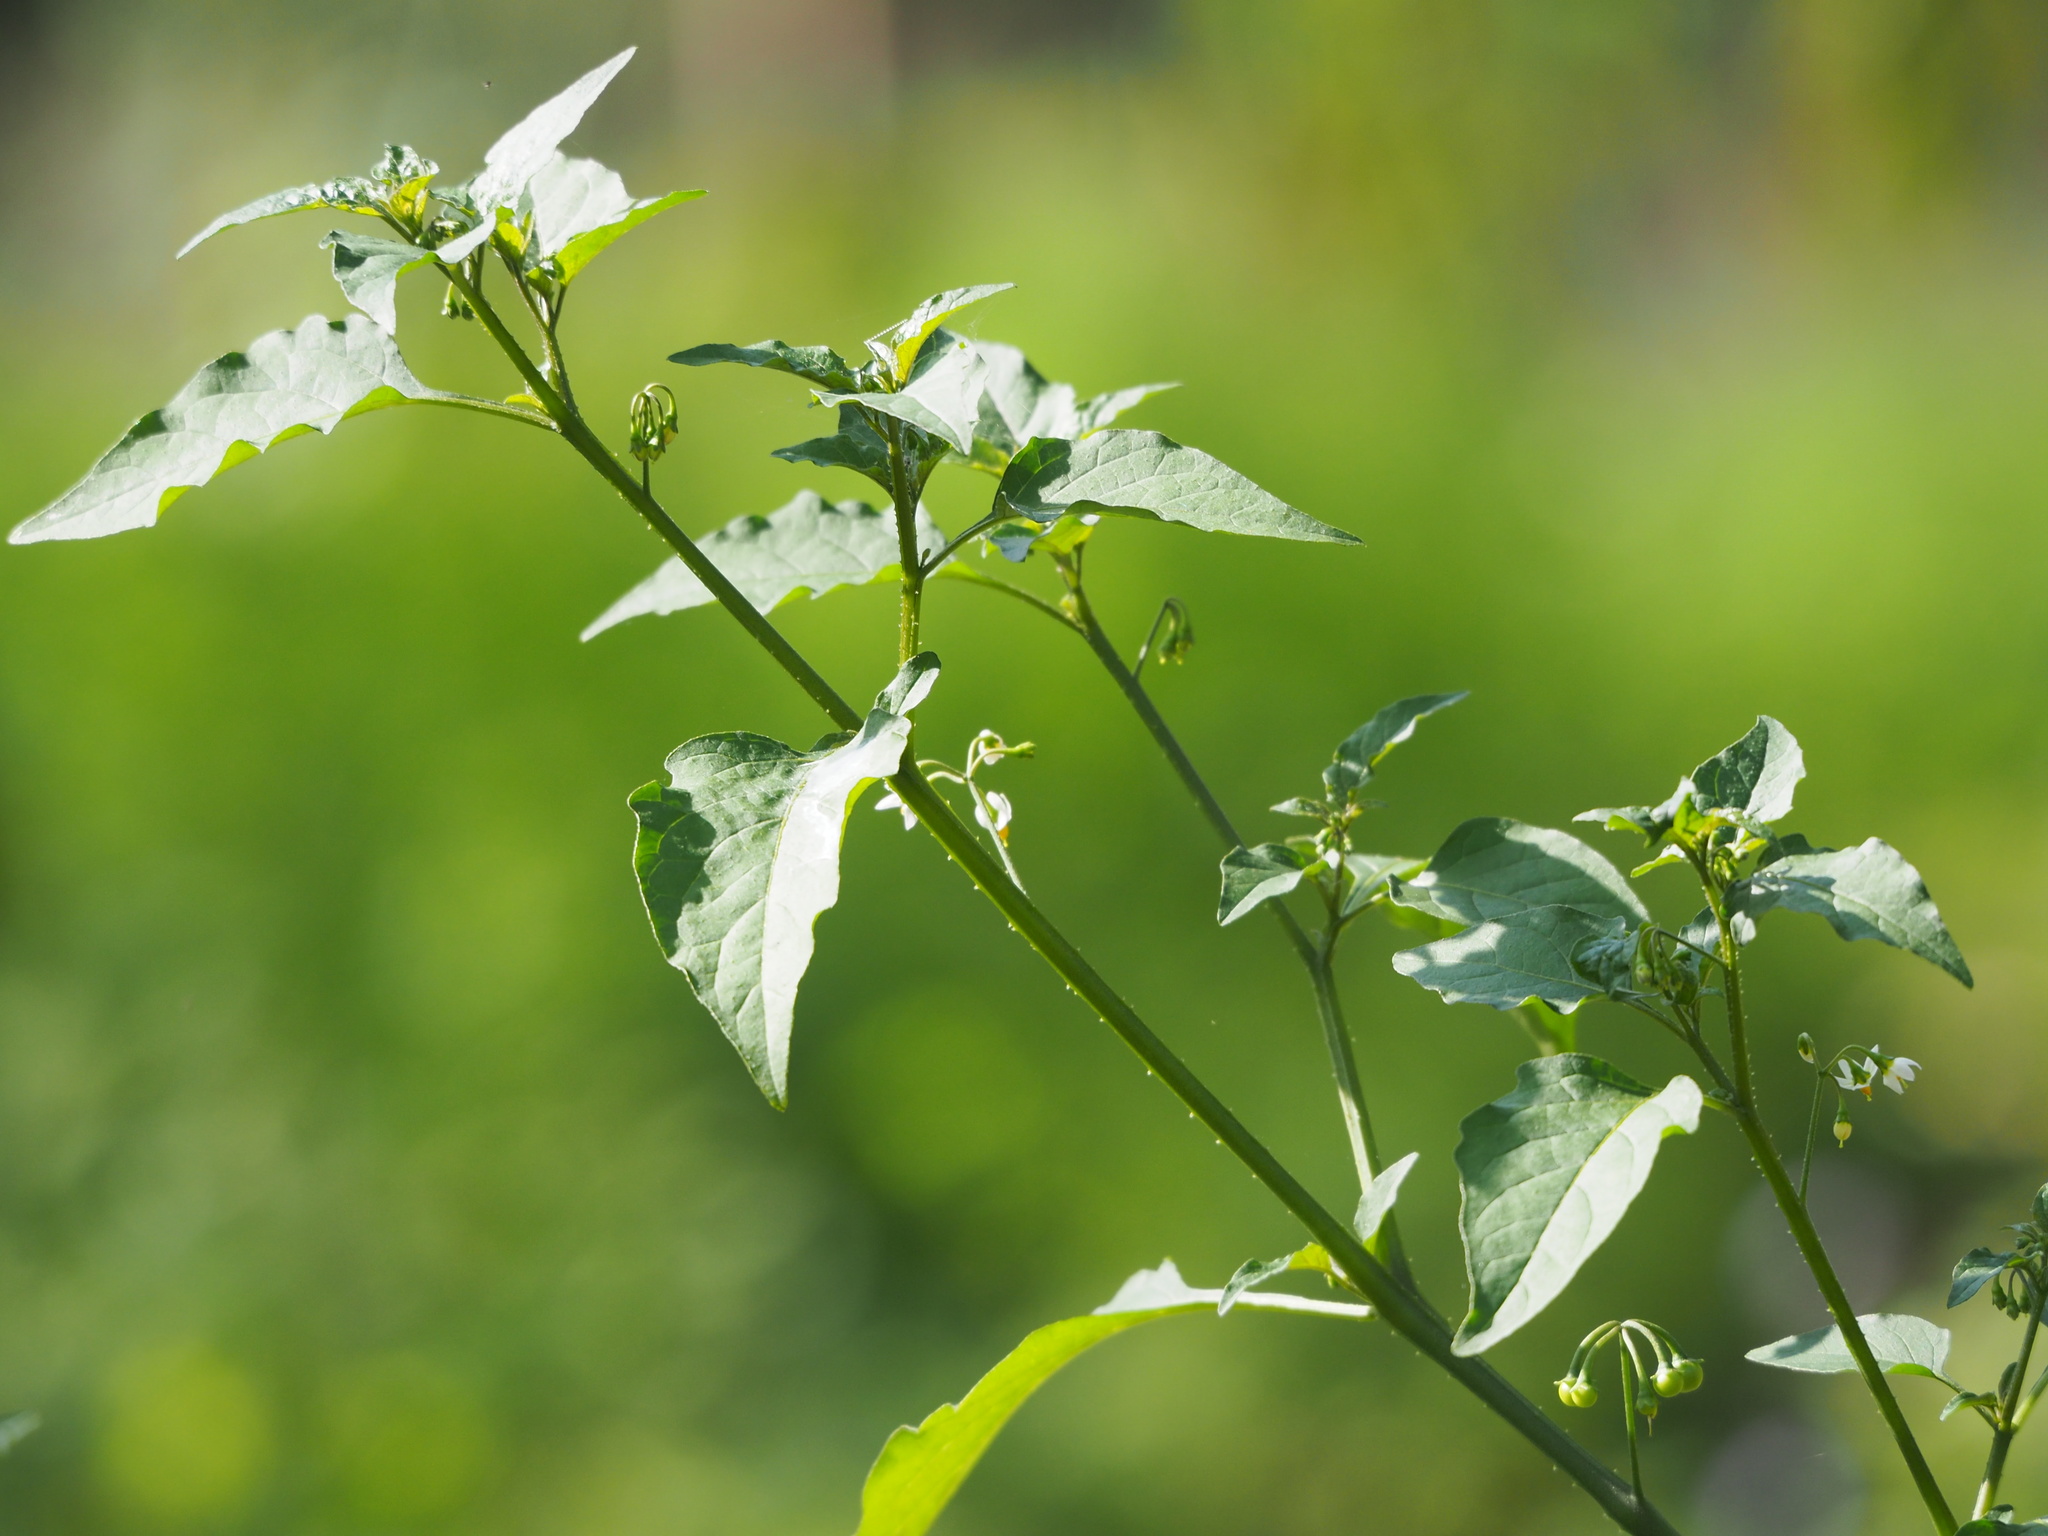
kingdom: Plantae
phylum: Tracheophyta
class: Magnoliopsida
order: Solanales
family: Solanaceae
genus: Solanum
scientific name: Solanum americanum
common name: American black nightshade
